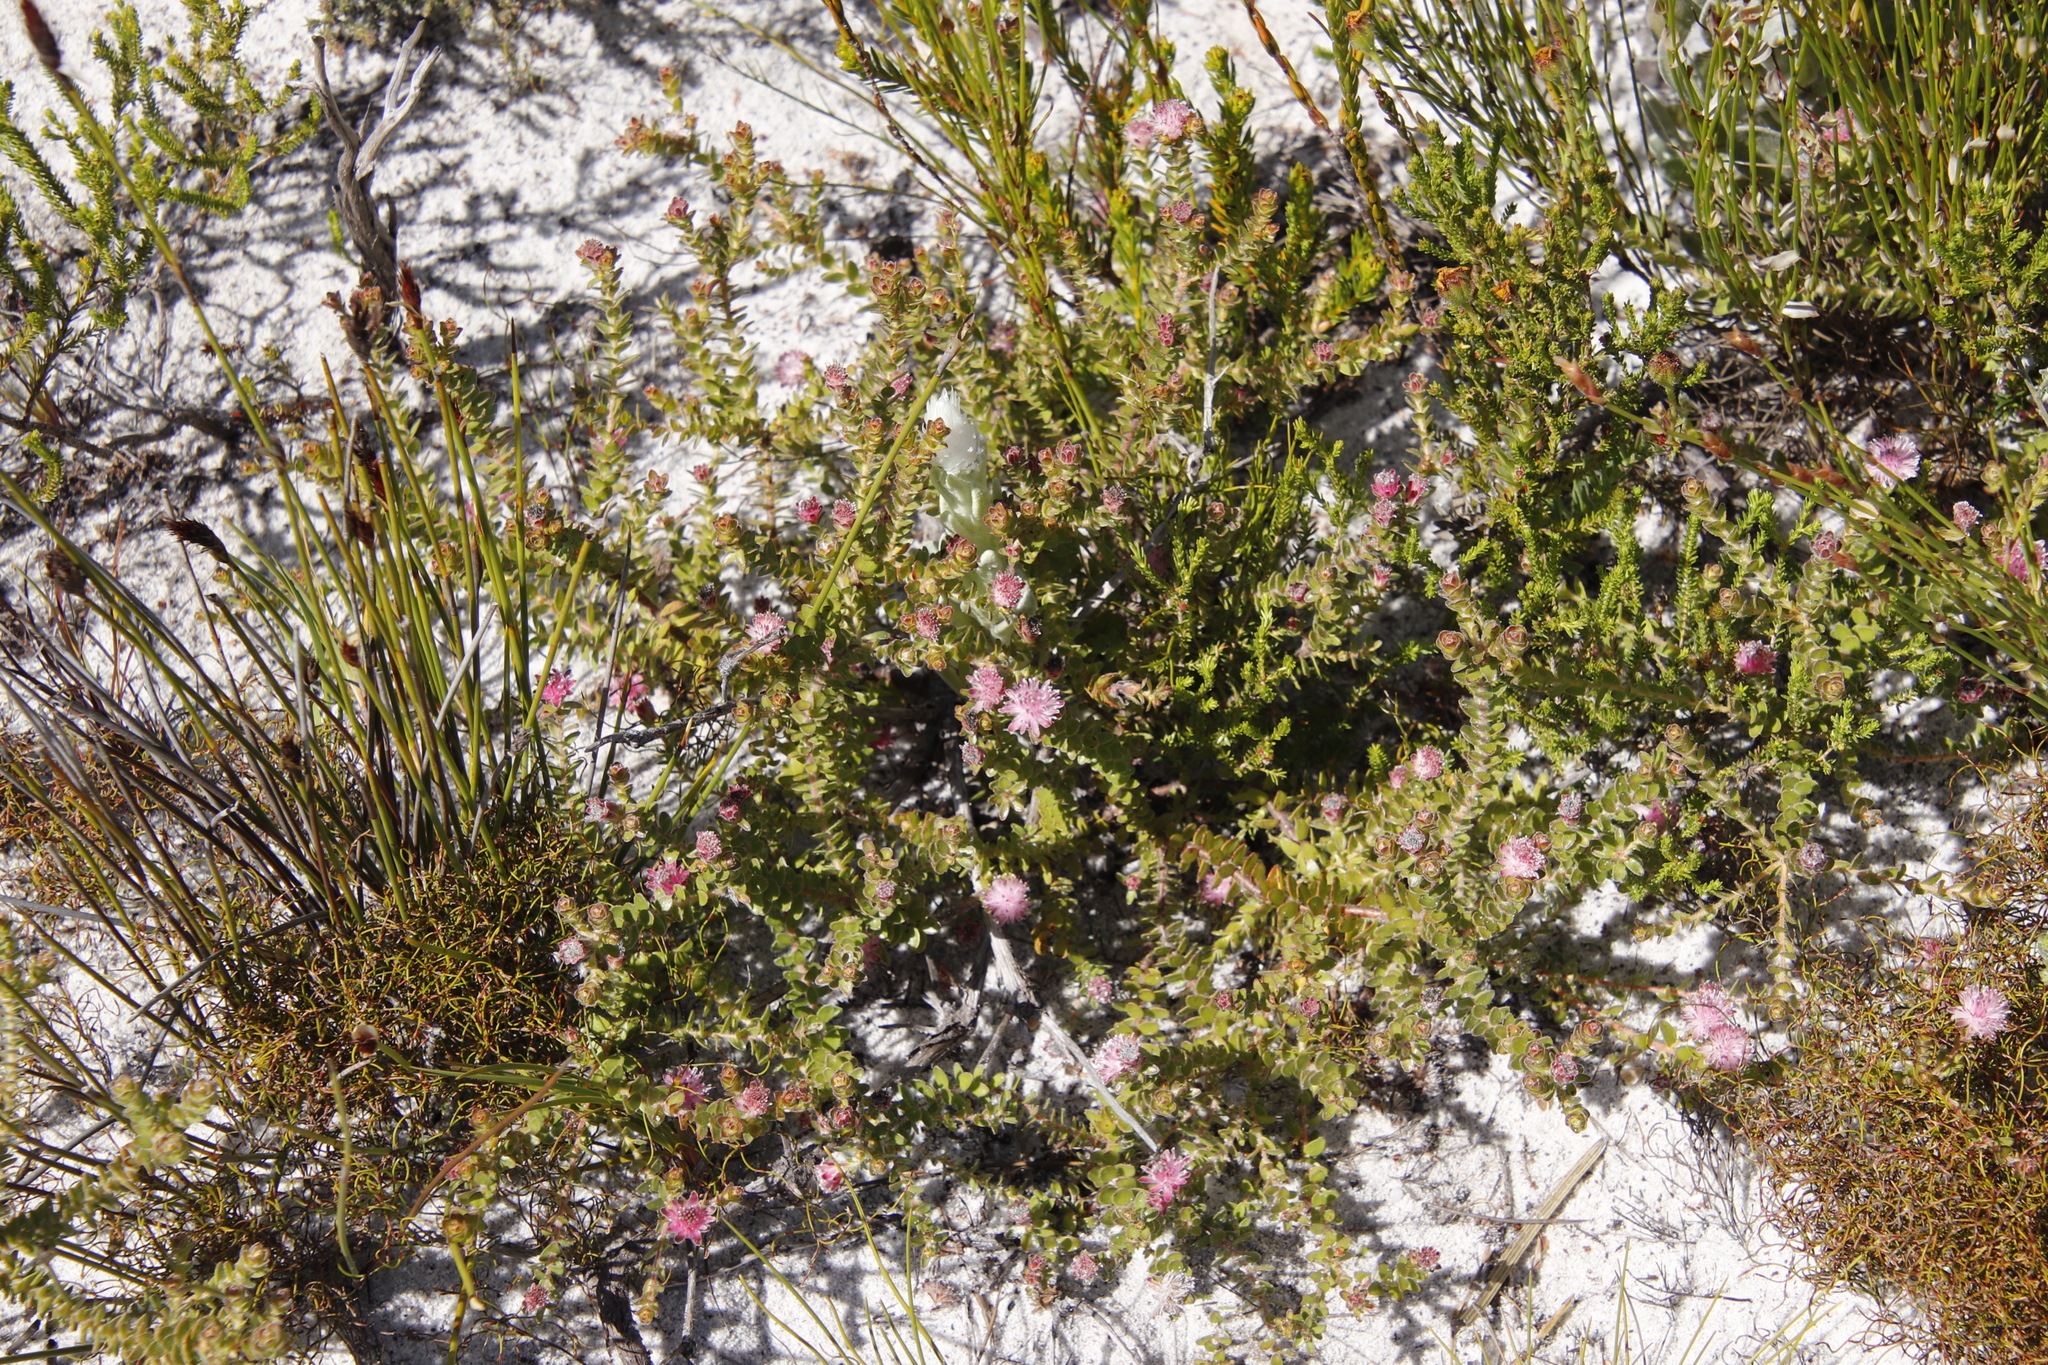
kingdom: Plantae
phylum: Tracheophyta
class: Magnoliopsida
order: Proteales
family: Proteaceae
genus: Diastella
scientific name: Diastella divaricata
